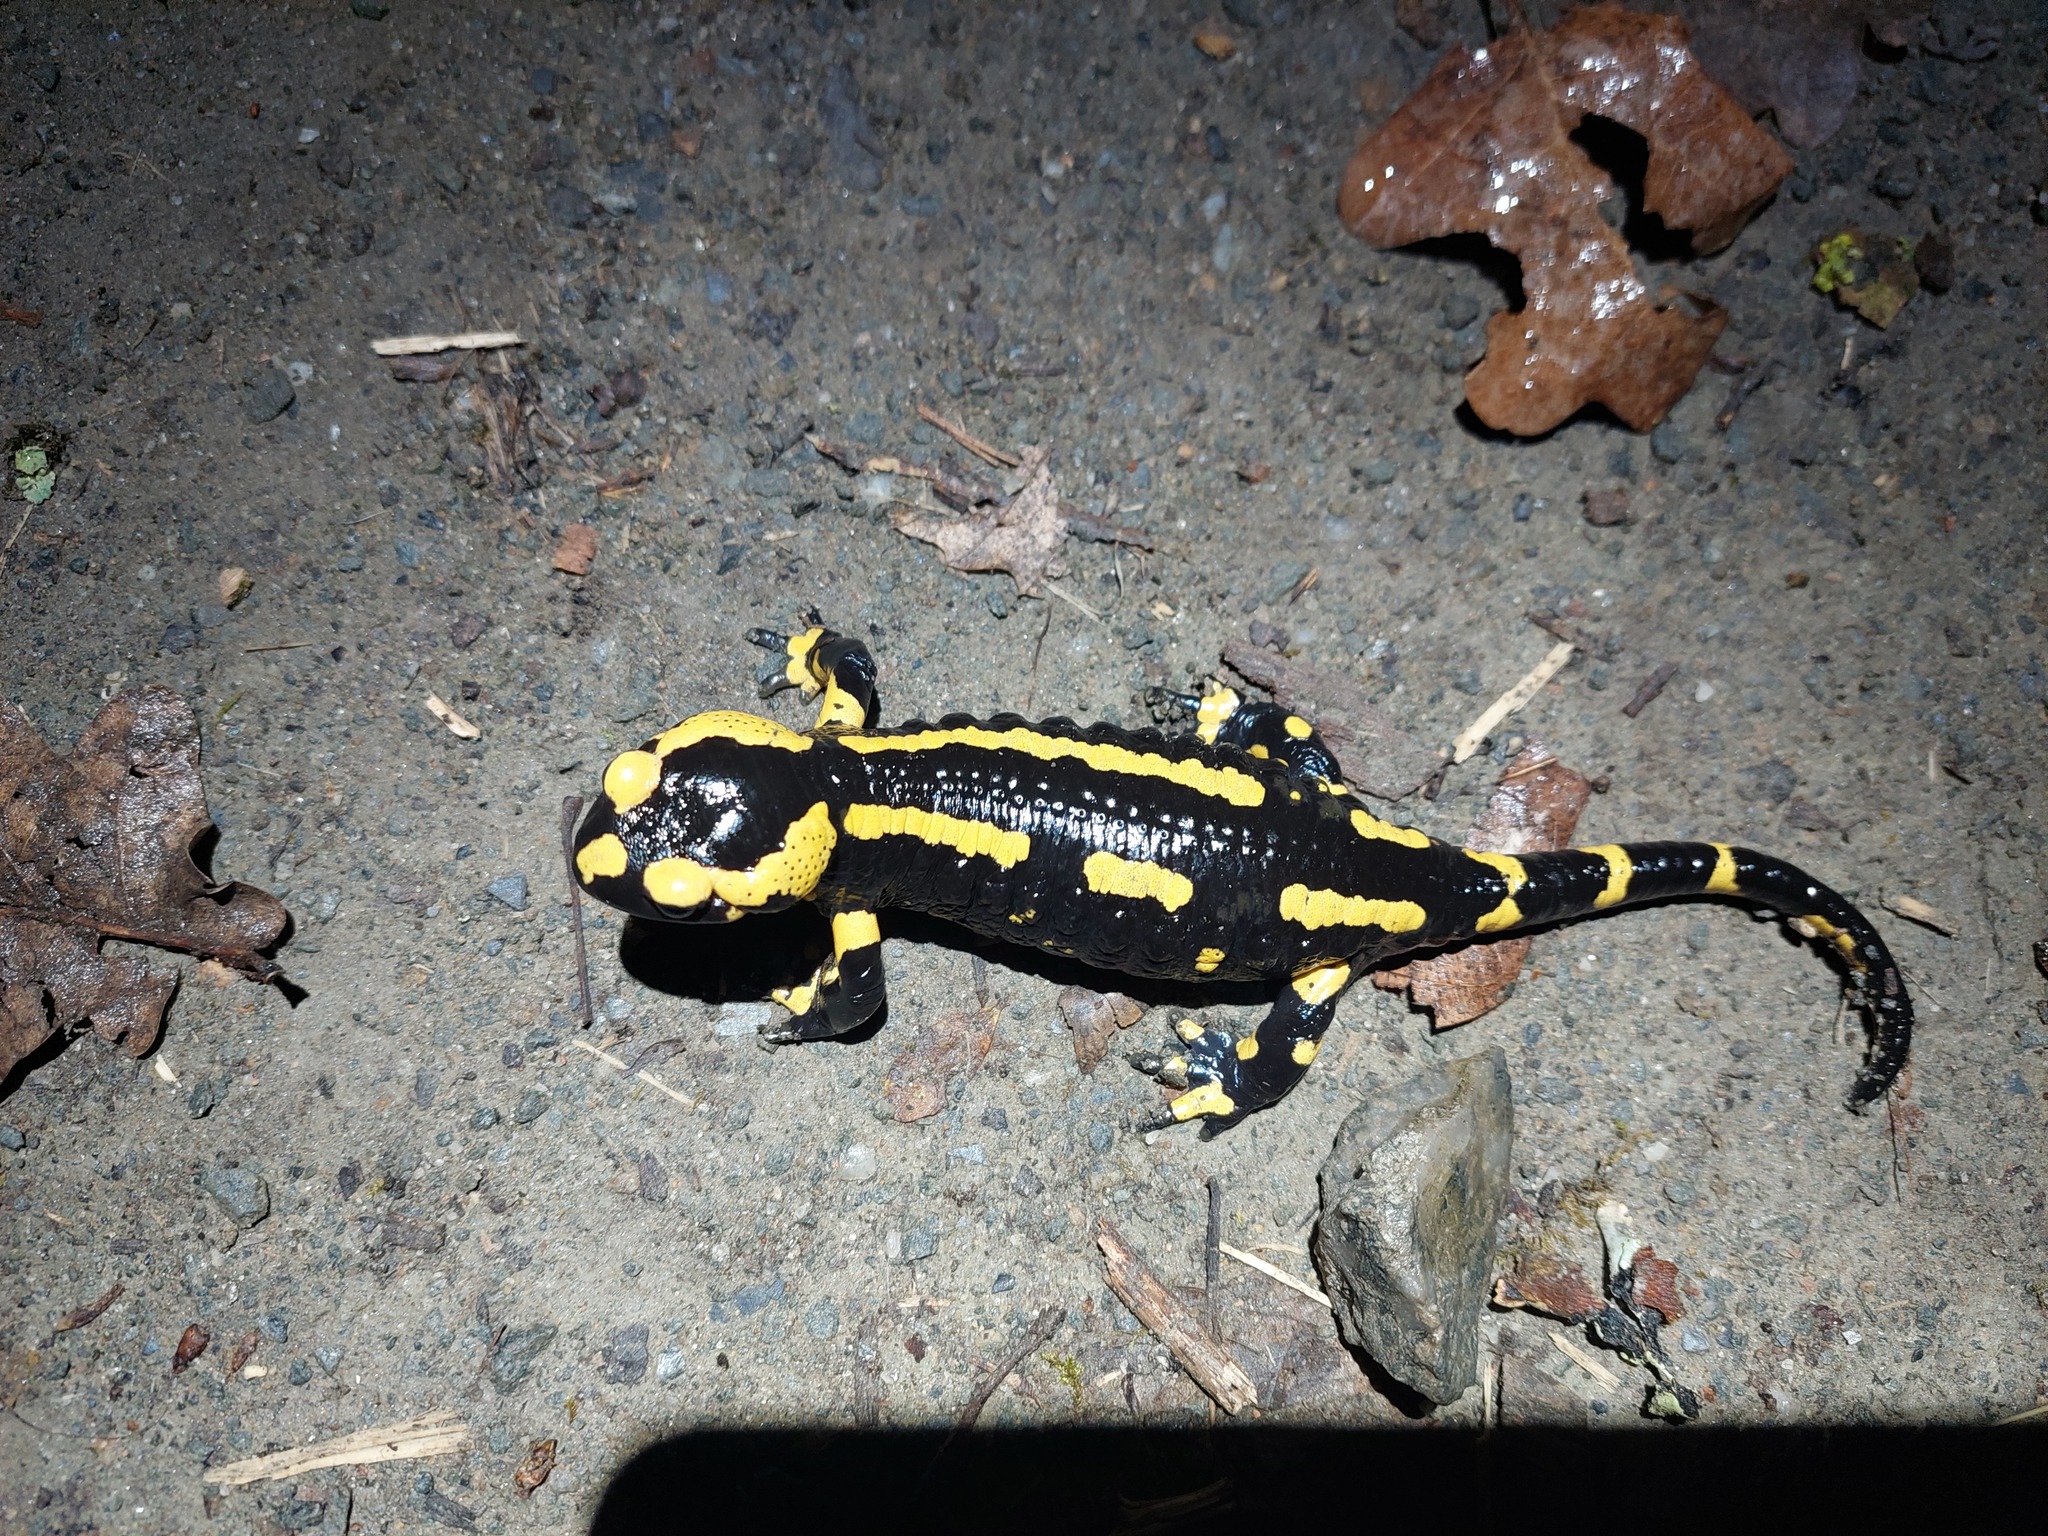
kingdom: Animalia
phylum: Chordata
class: Amphibia
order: Caudata
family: Salamandridae
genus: Salamandra
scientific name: Salamandra salamandra
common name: Fire salamander
